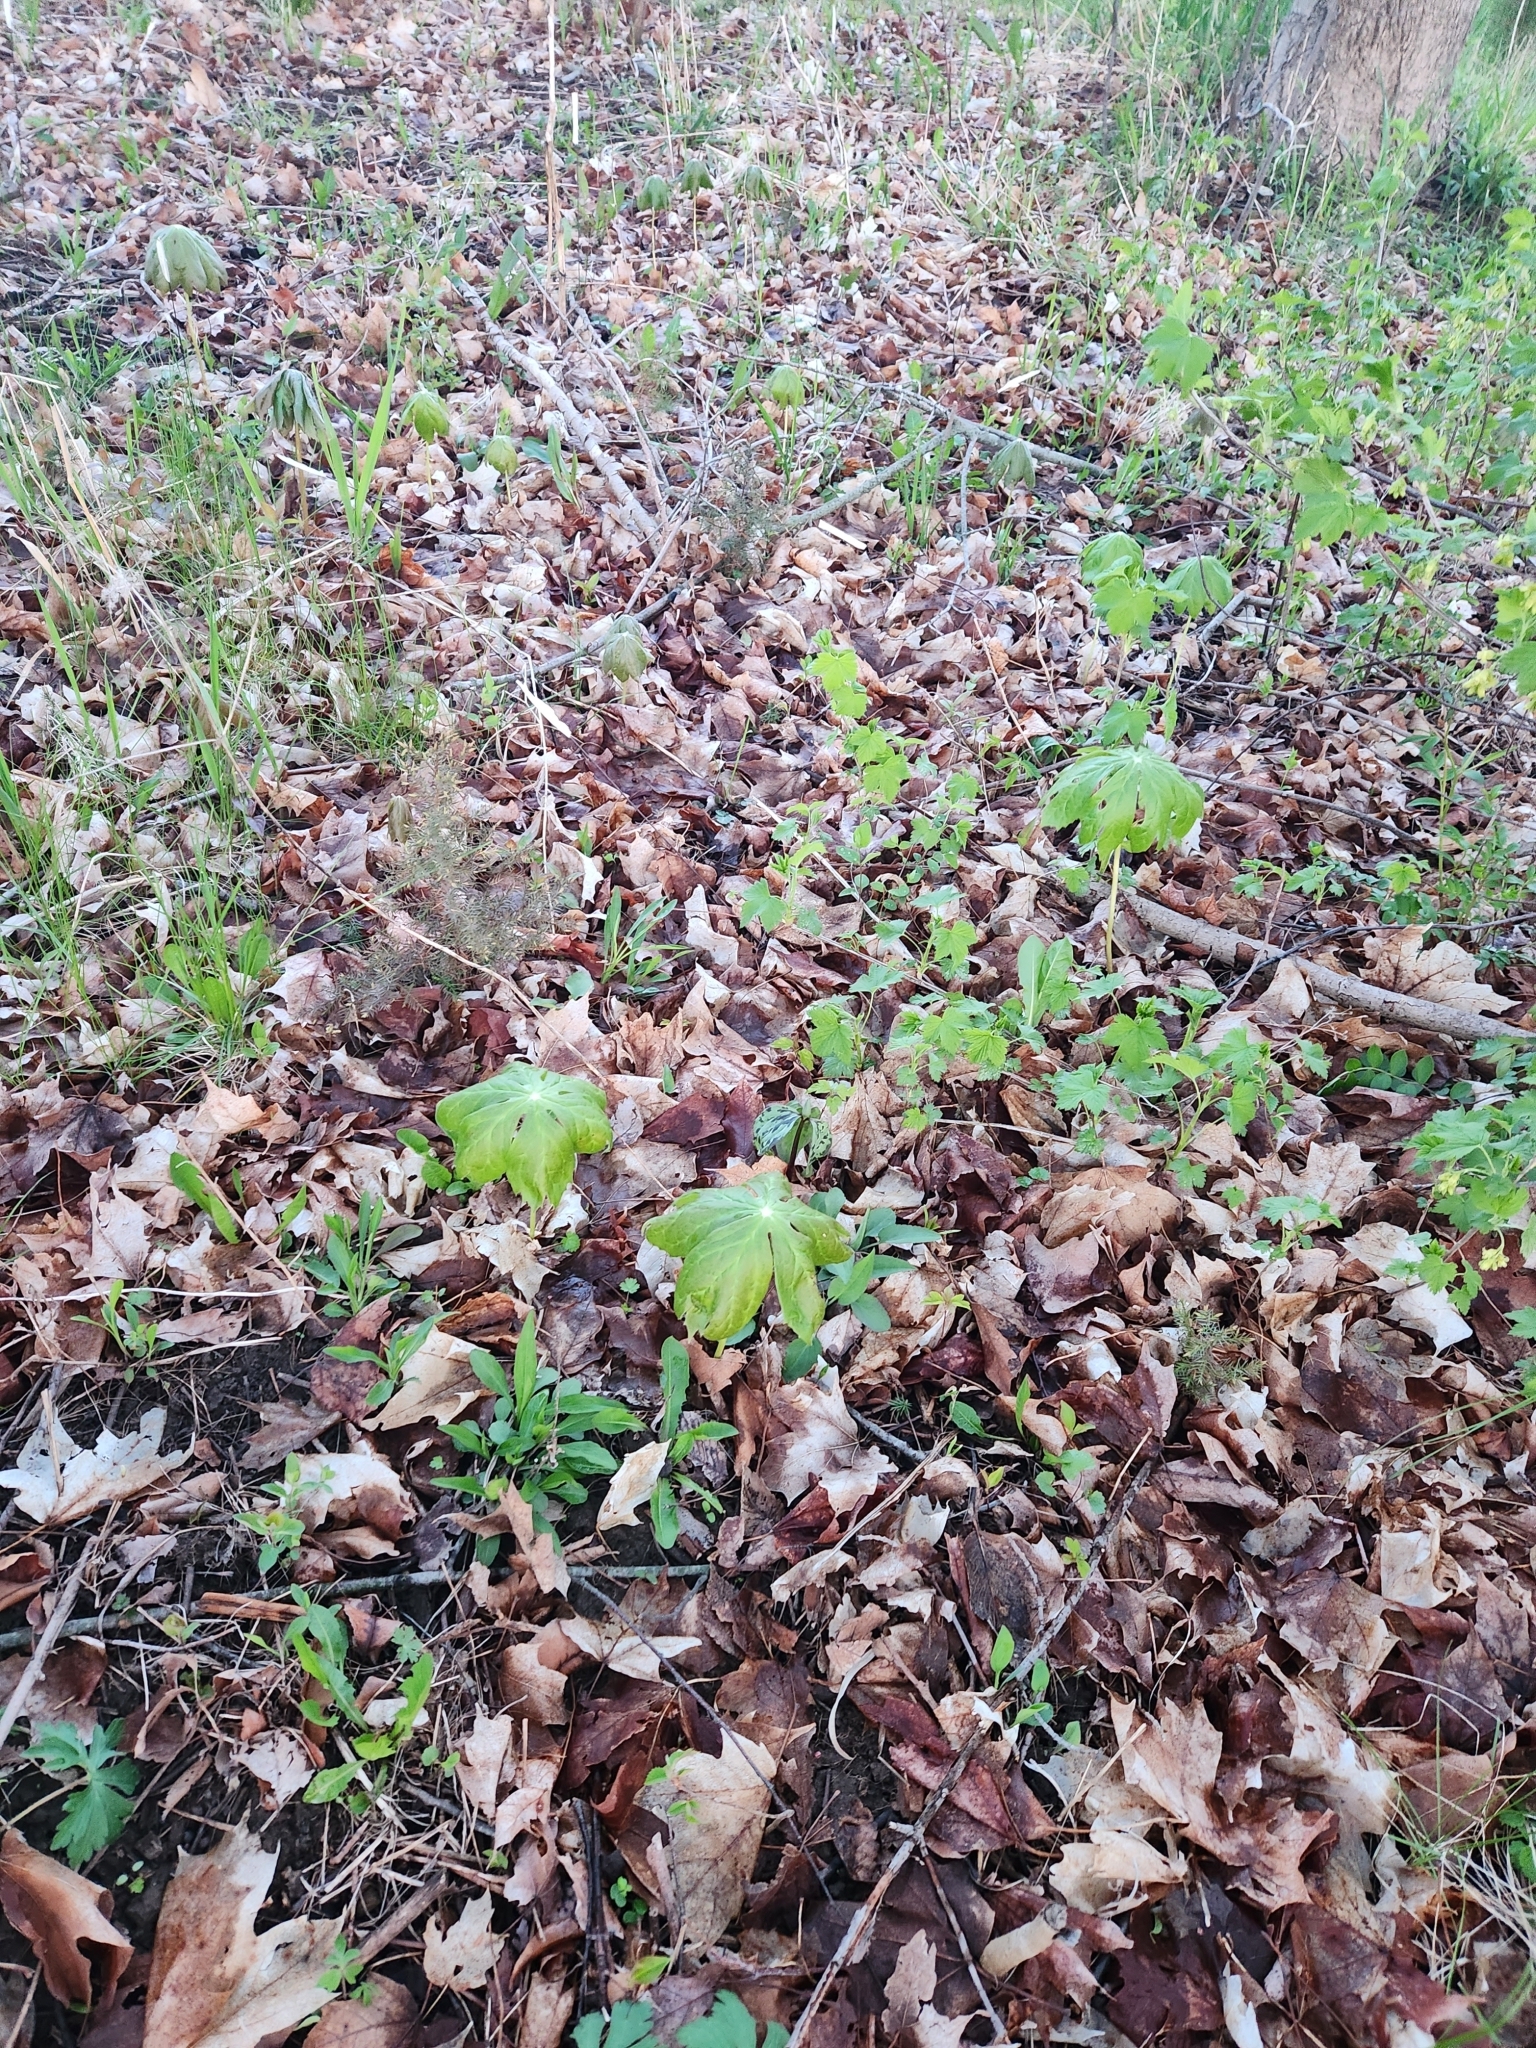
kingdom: Plantae
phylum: Tracheophyta
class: Magnoliopsida
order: Ranunculales
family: Berberidaceae
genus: Podophyllum
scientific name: Podophyllum peltatum
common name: Wild mandrake
